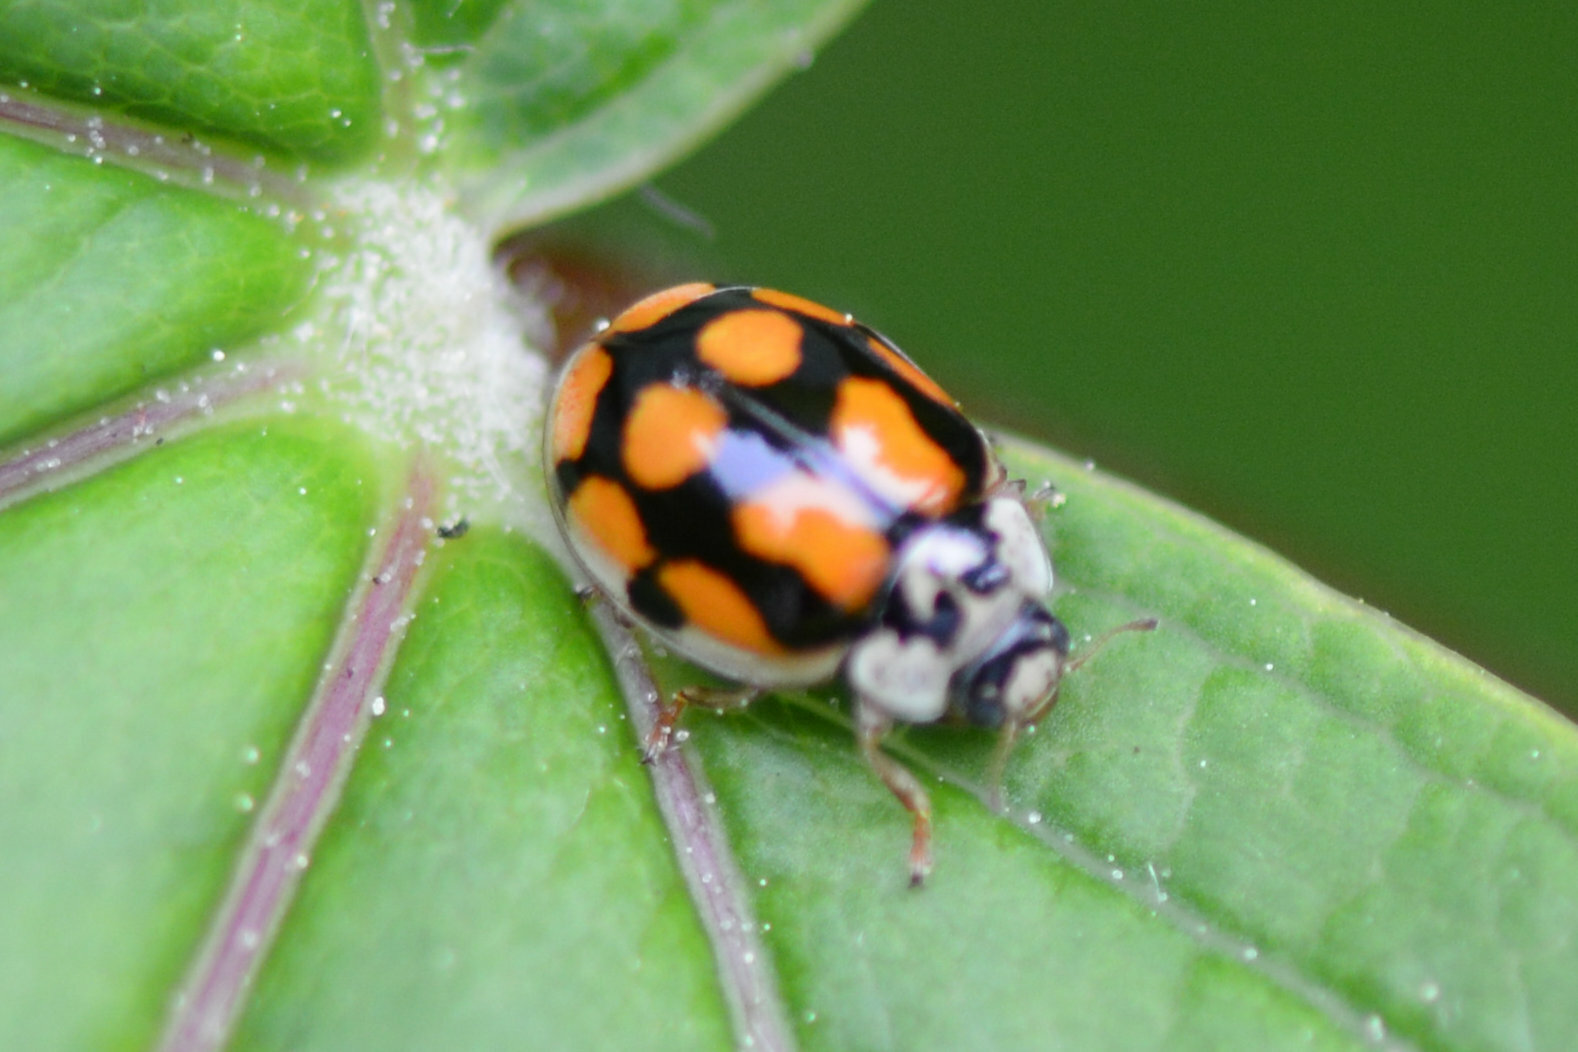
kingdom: Animalia
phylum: Arthropoda
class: Insecta
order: Coleoptera
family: Coccinellidae
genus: Adalia
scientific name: Adalia decempunctata
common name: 10-spot ladybird
